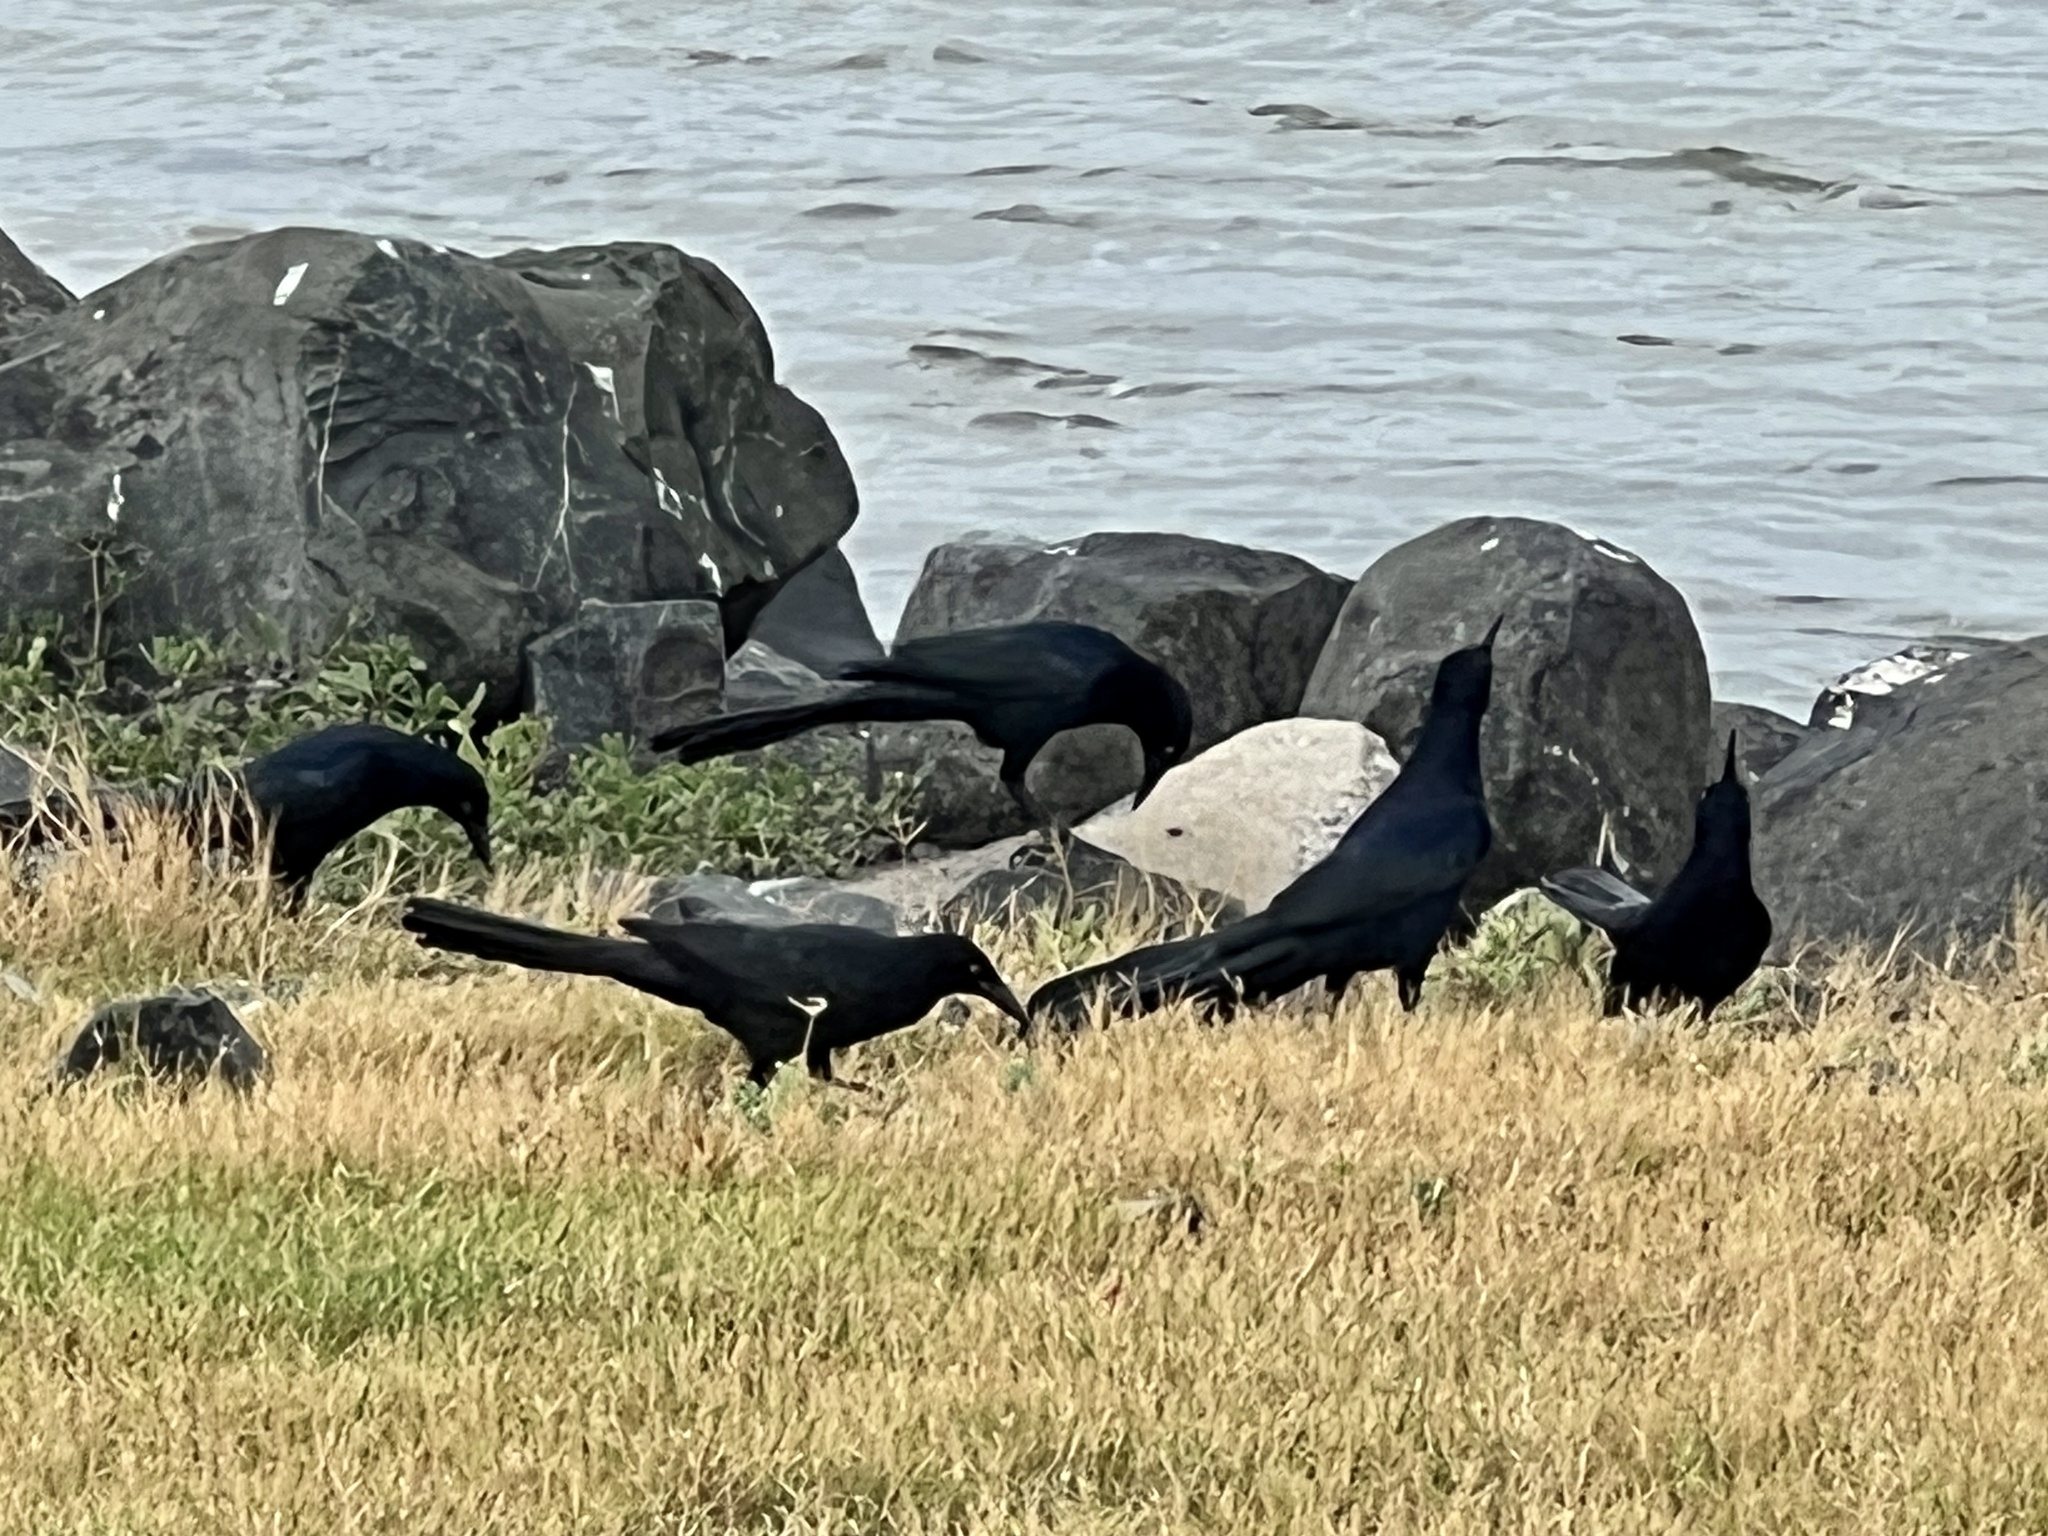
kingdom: Animalia
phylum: Chordata
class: Aves
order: Passeriformes
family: Icteridae
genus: Quiscalus
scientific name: Quiscalus mexicanus
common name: Great-tailed grackle
